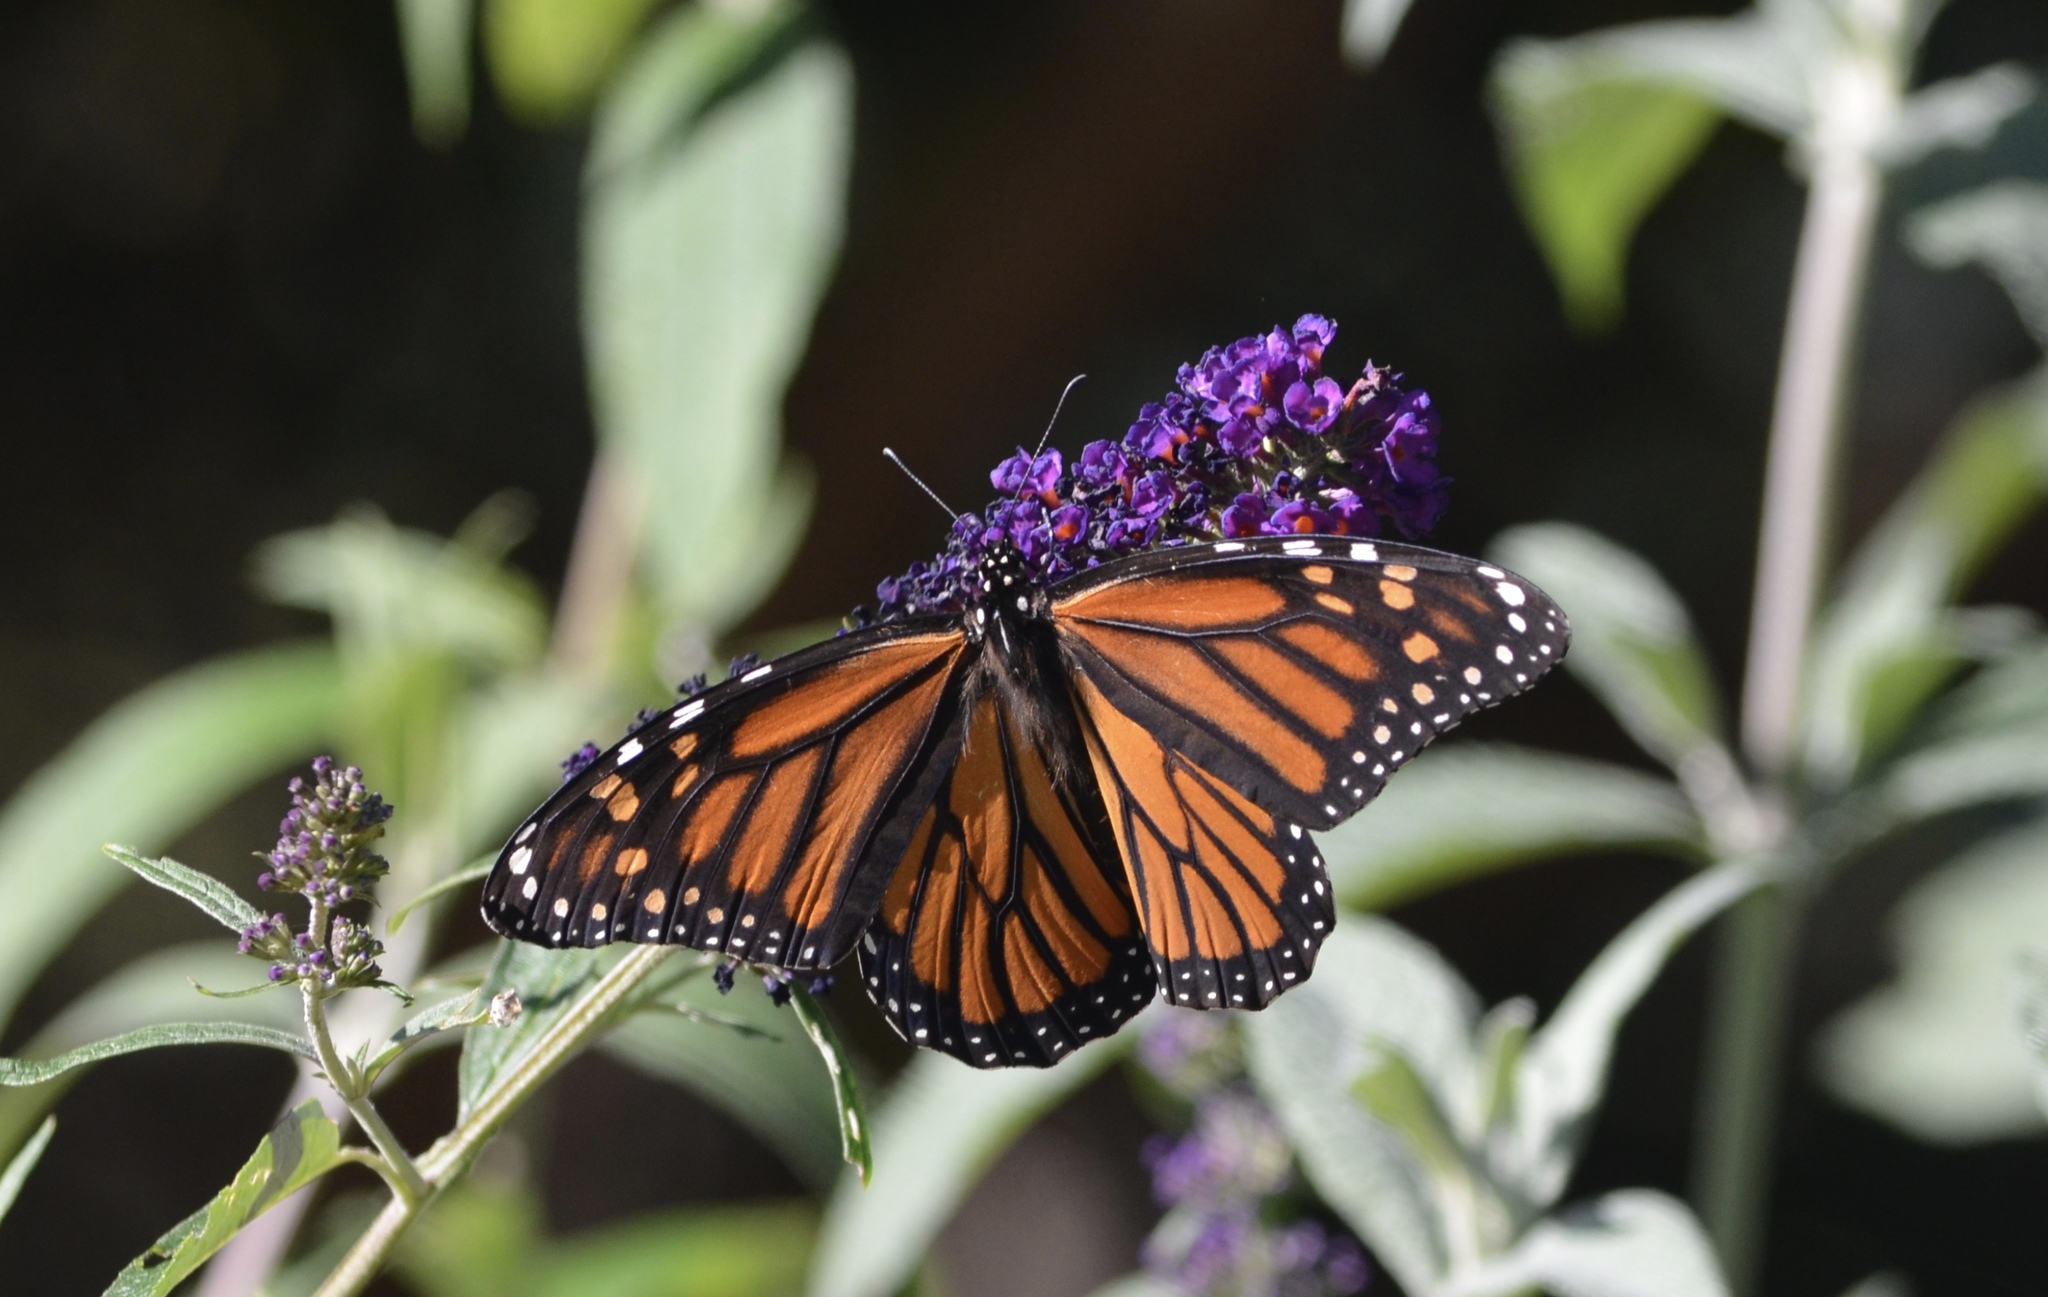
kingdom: Animalia
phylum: Arthropoda
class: Insecta
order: Lepidoptera
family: Nymphalidae
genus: Danaus
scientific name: Danaus plexippus
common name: Monarch
